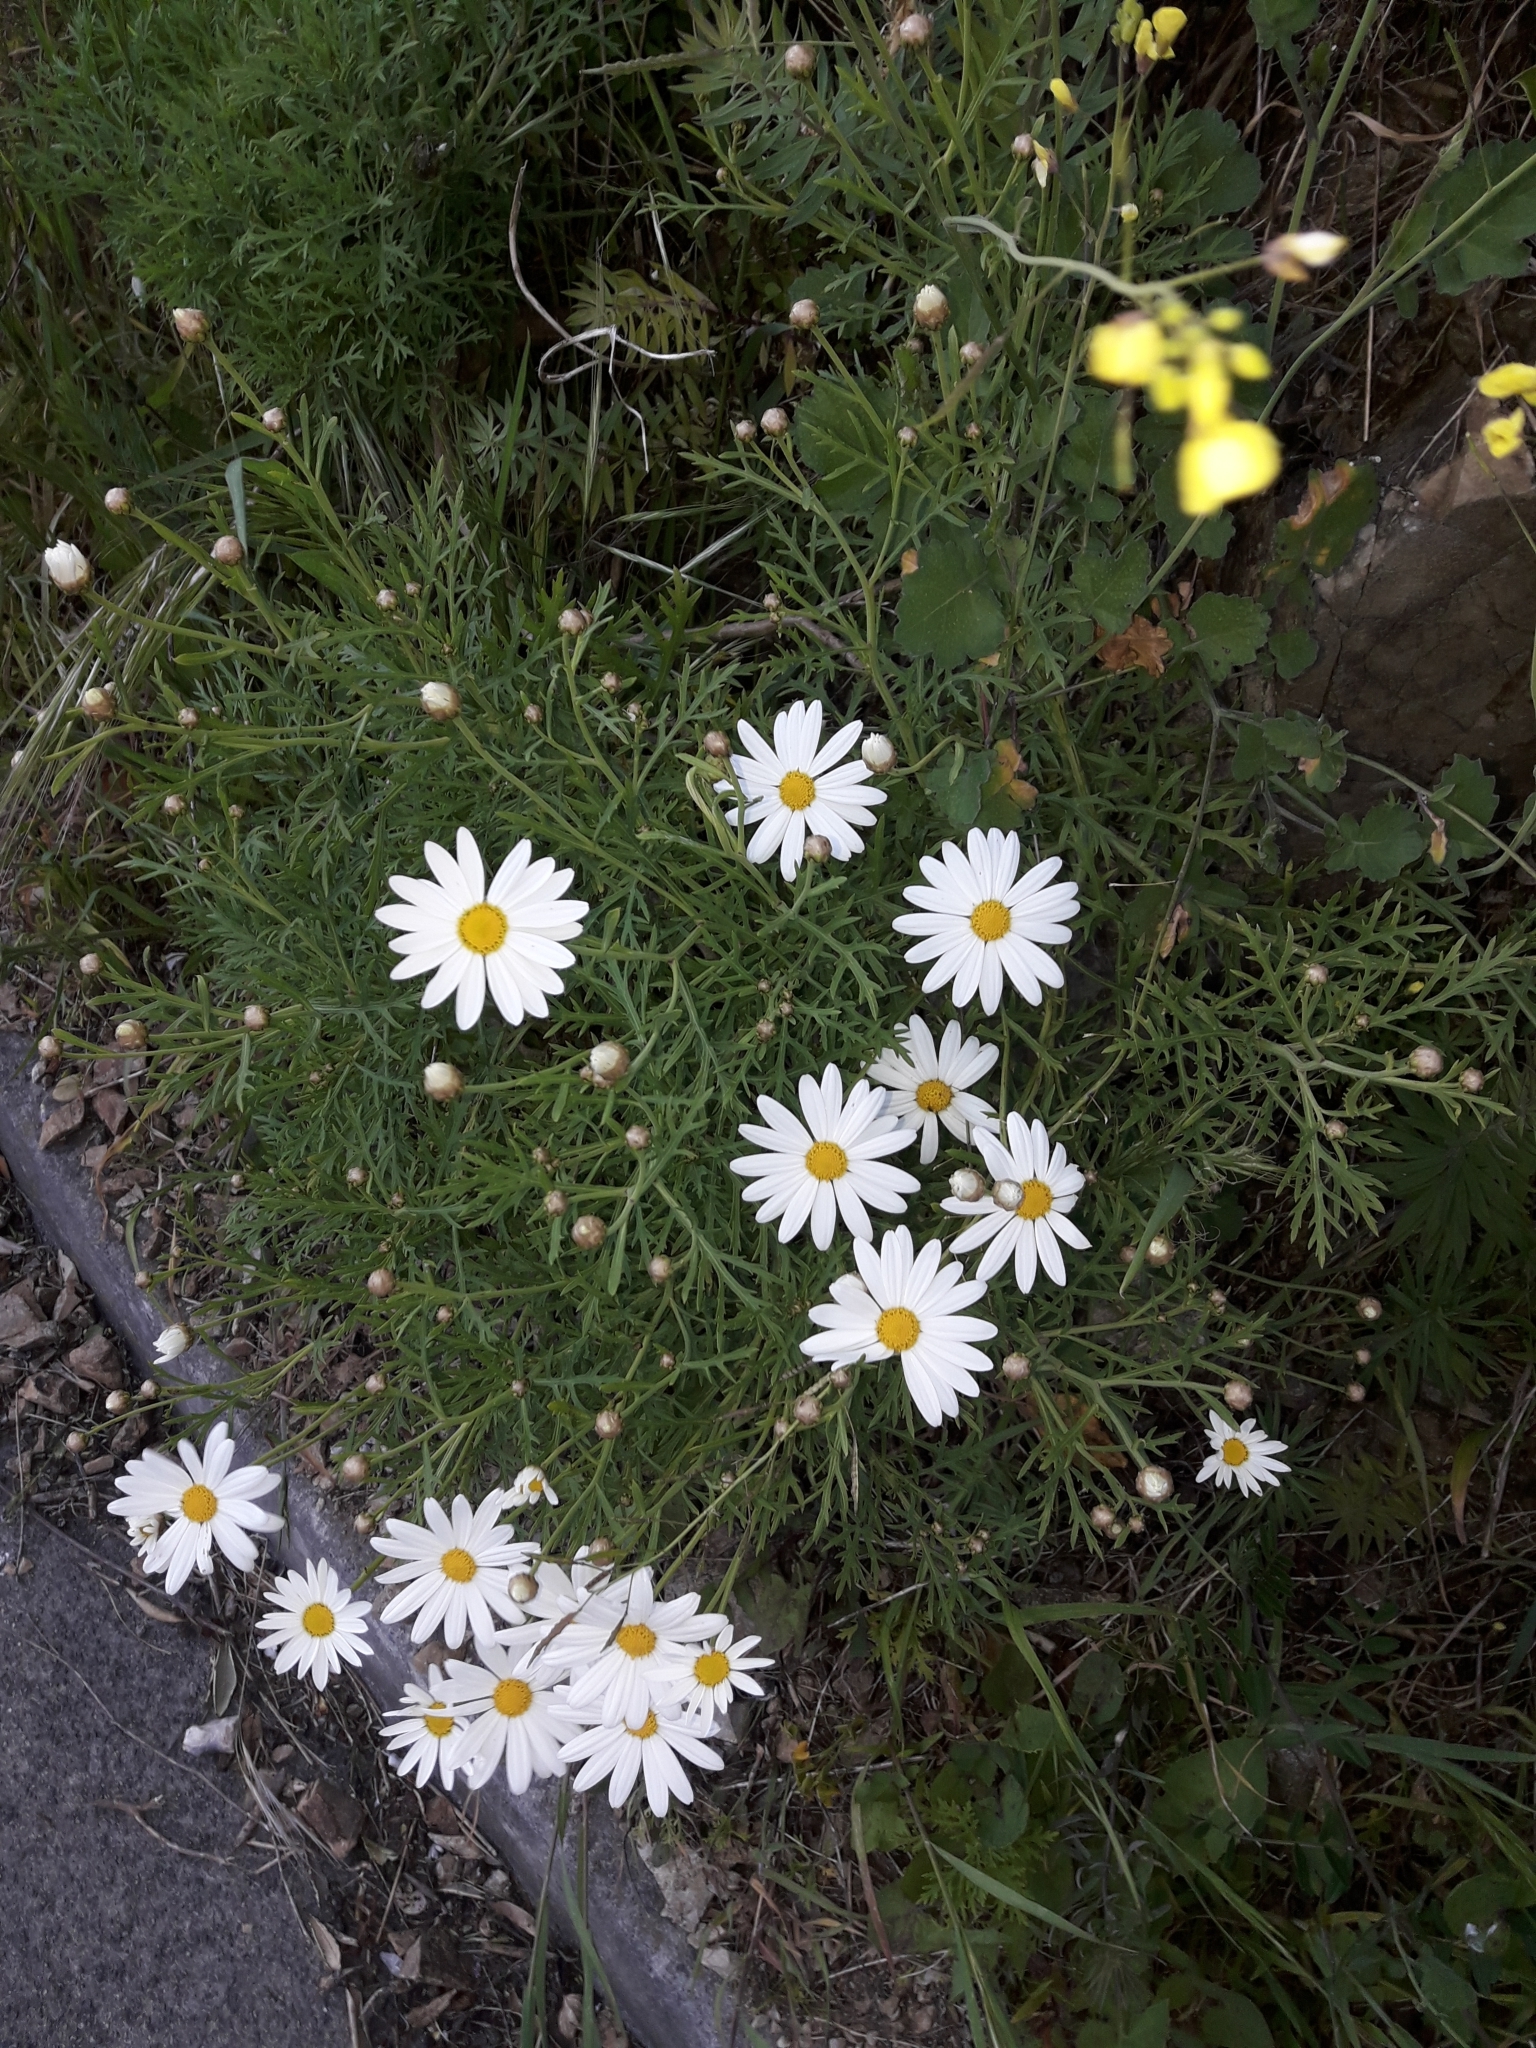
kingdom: Plantae
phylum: Tracheophyta
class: Magnoliopsida
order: Asterales
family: Asteraceae
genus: Argyranthemum
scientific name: Argyranthemum frutescens
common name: Paris daisy
